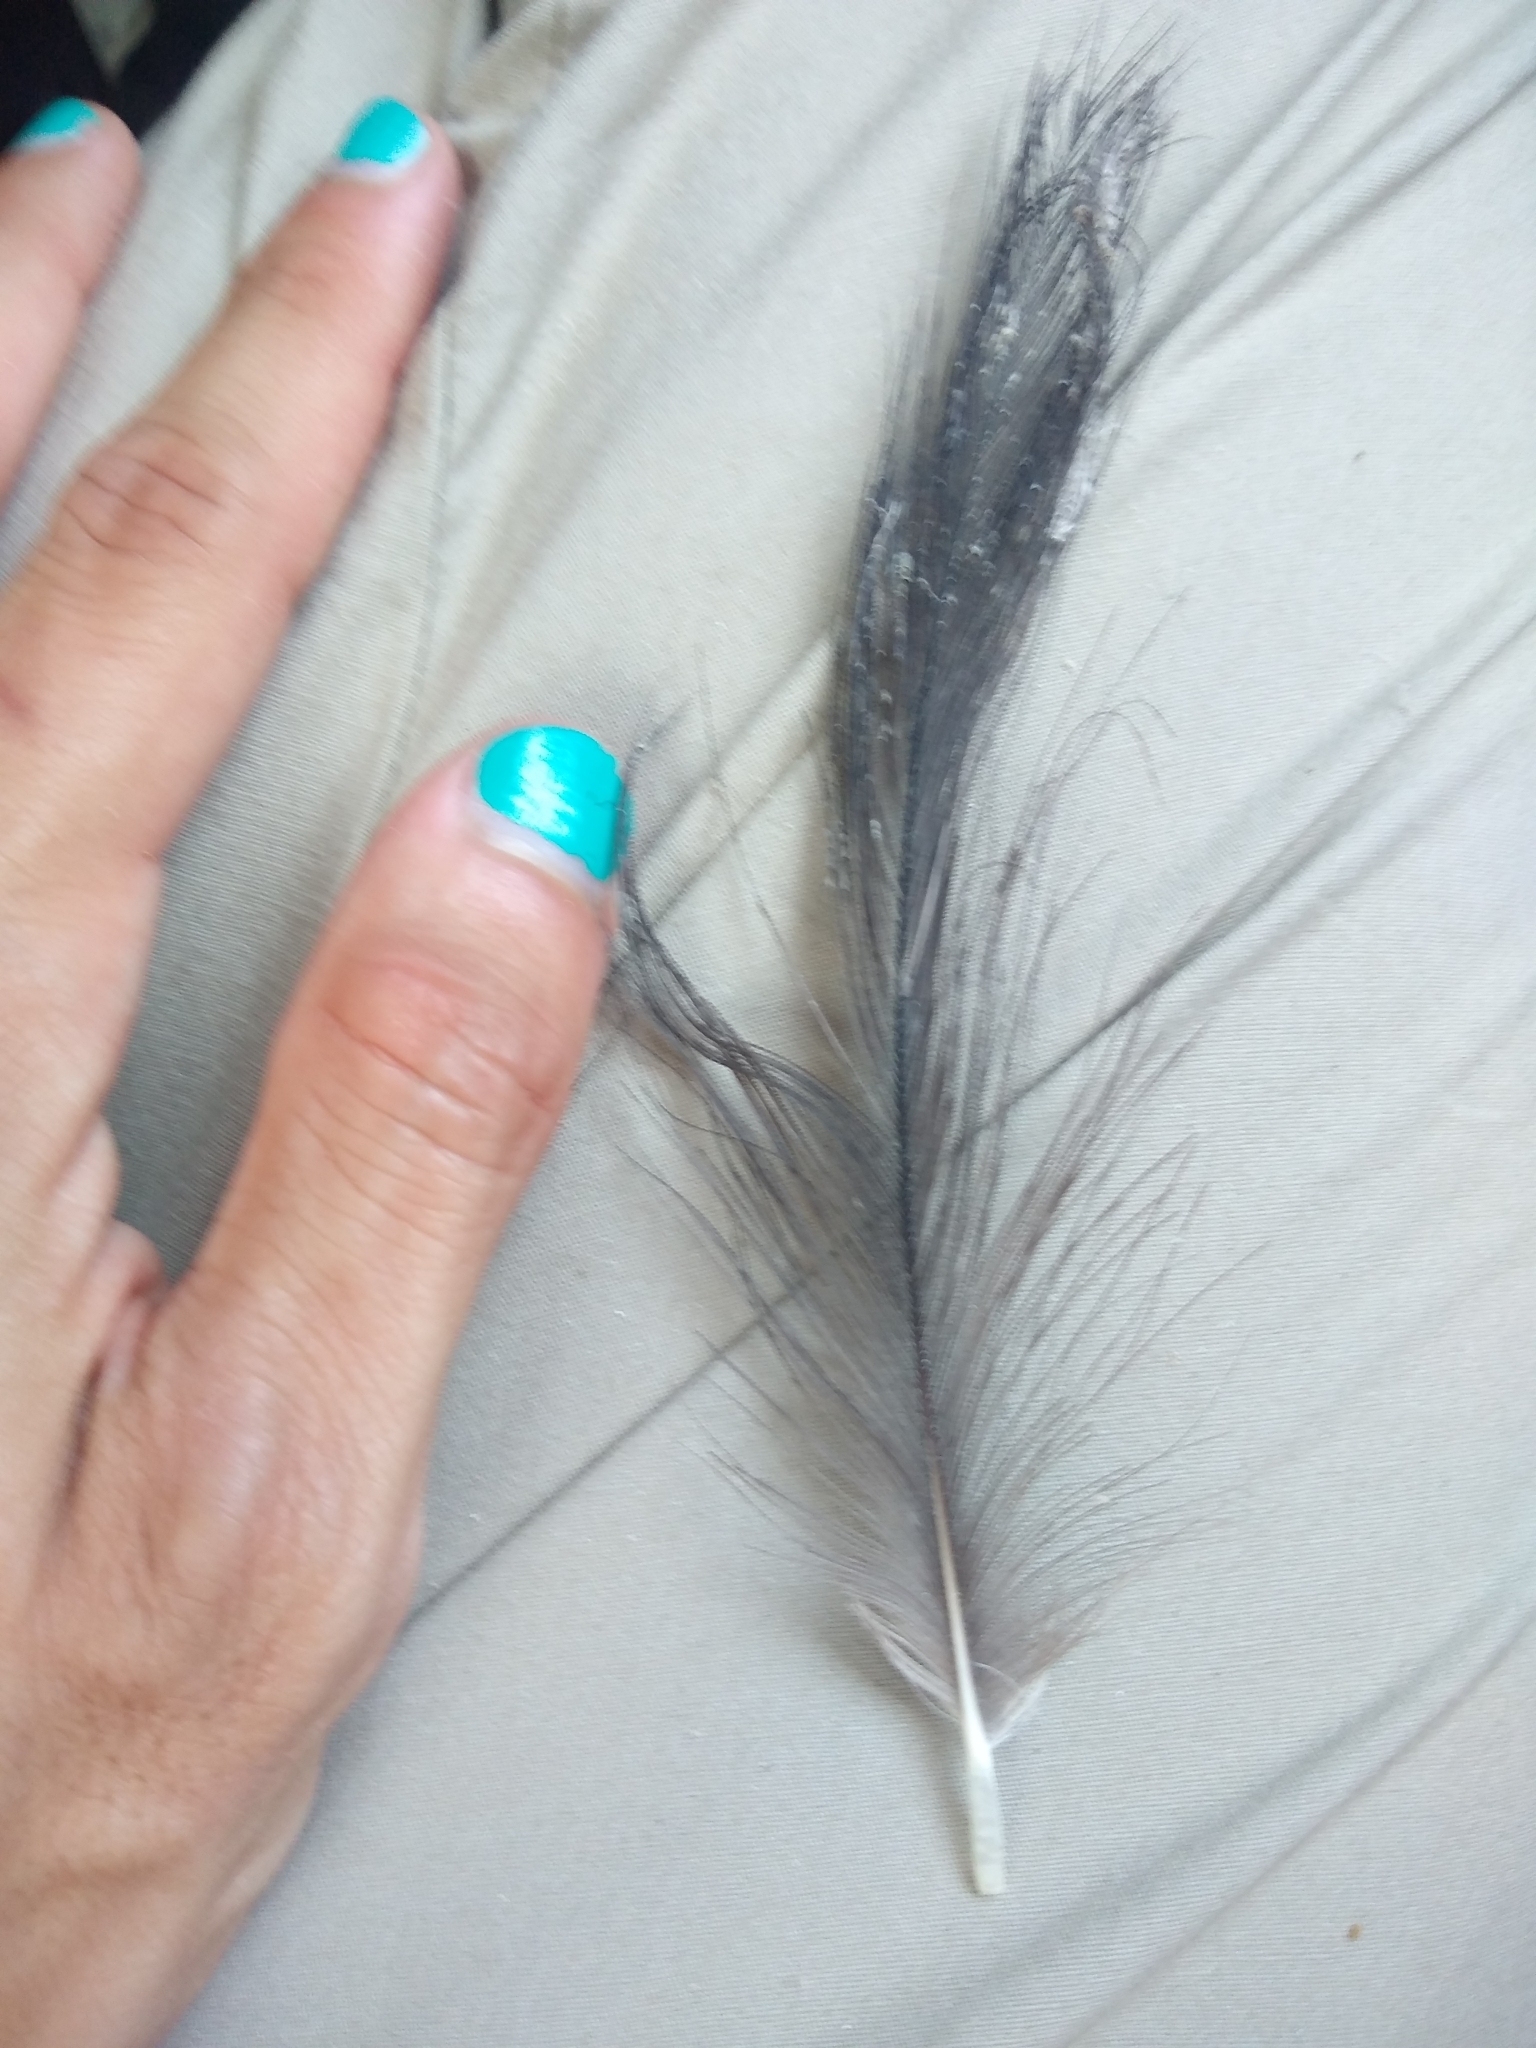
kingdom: Animalia
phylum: Chordata
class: Aves
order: Pelecaniformes
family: Ardeidae
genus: Ardea
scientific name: Ardea herodias
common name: Great blue heron
